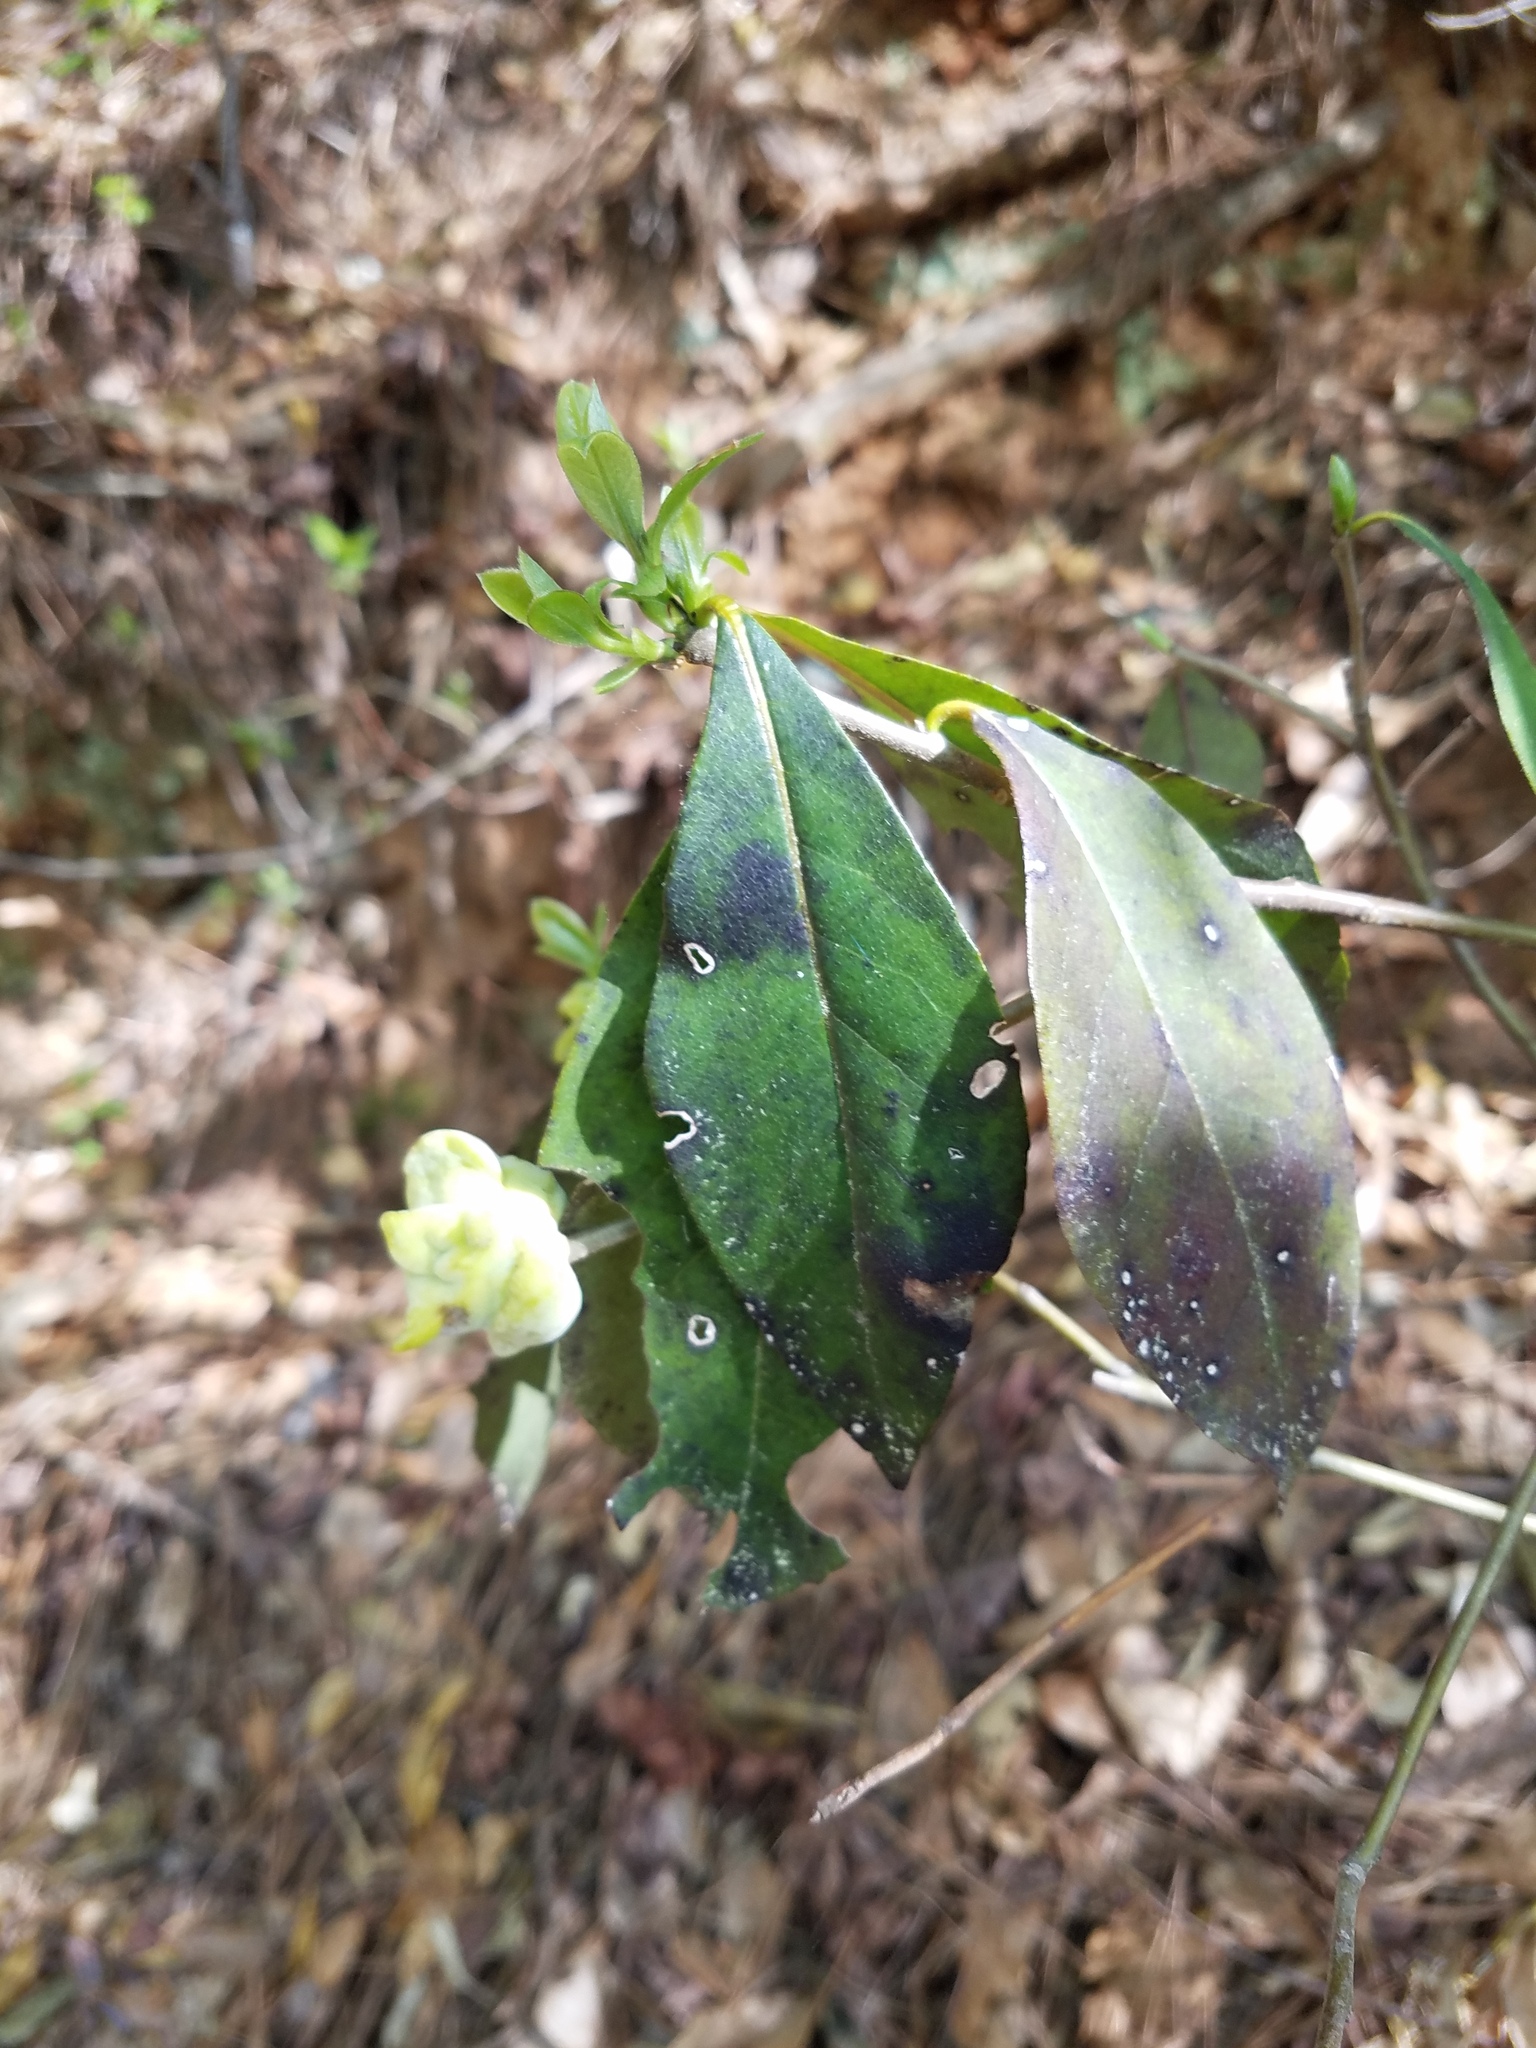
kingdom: Plantae
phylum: Tracheophyta
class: Magnoliopsida
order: Ericales
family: Symplocaceae
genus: Symplocos
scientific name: Symplocos tinctoria
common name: Horse-sugar
